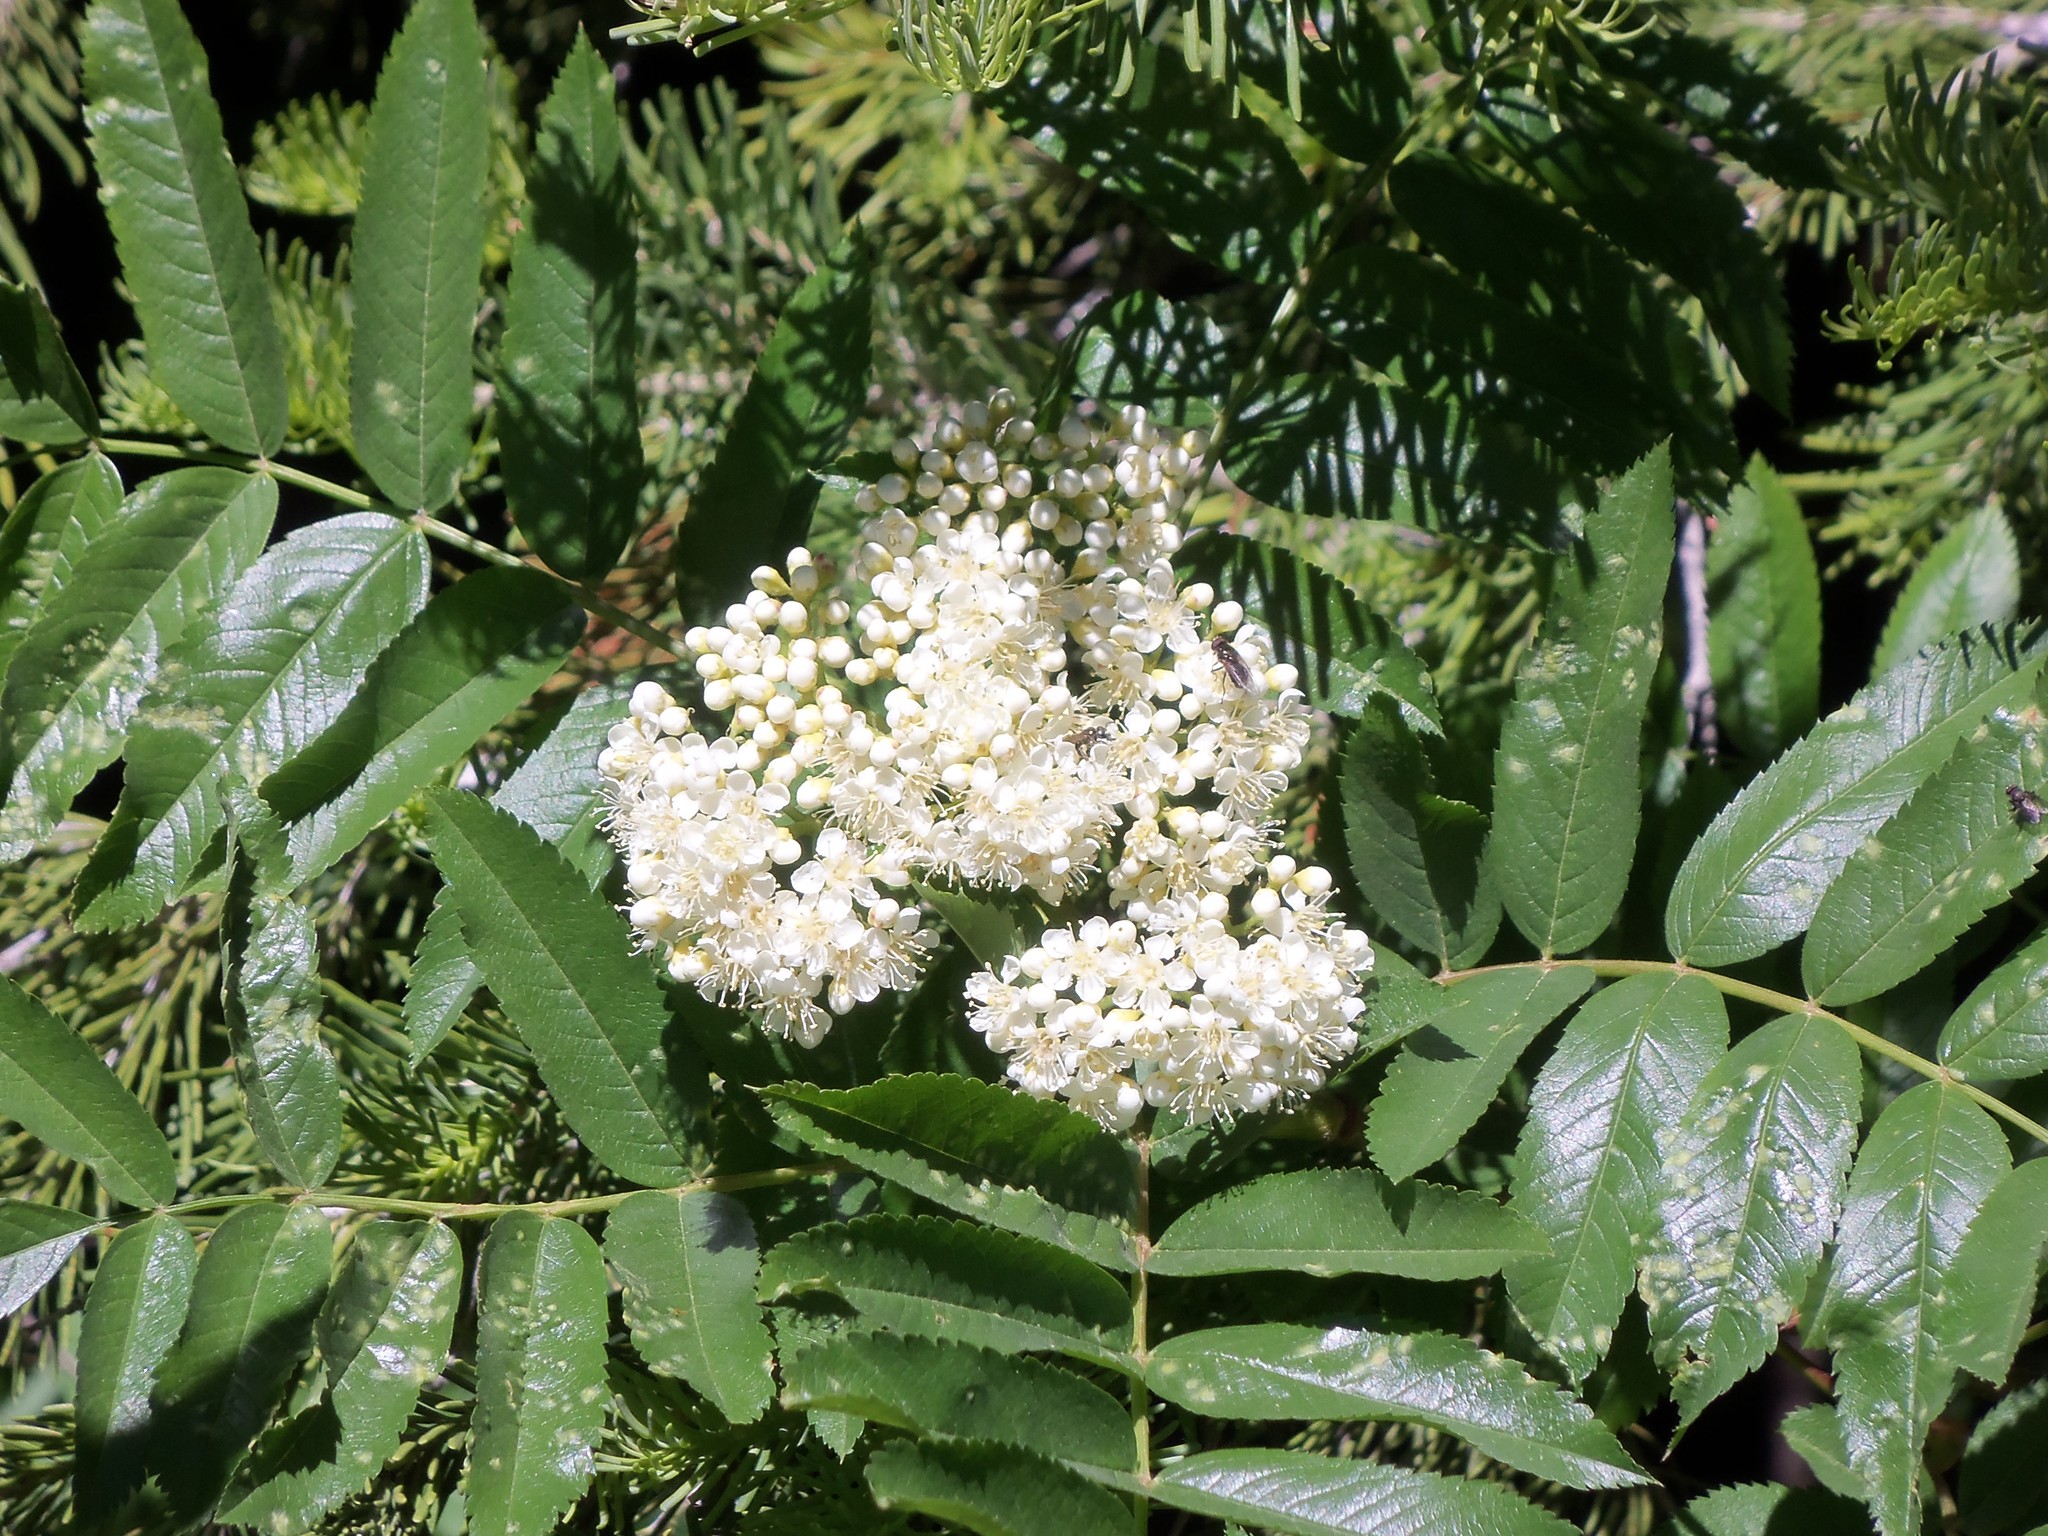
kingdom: Plantae
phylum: Tracheophyta
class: Magnoliopsida
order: Rosales
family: Rosaceae
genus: Sorbus
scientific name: Sorbus scopulina
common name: Greene's mountain-ash
